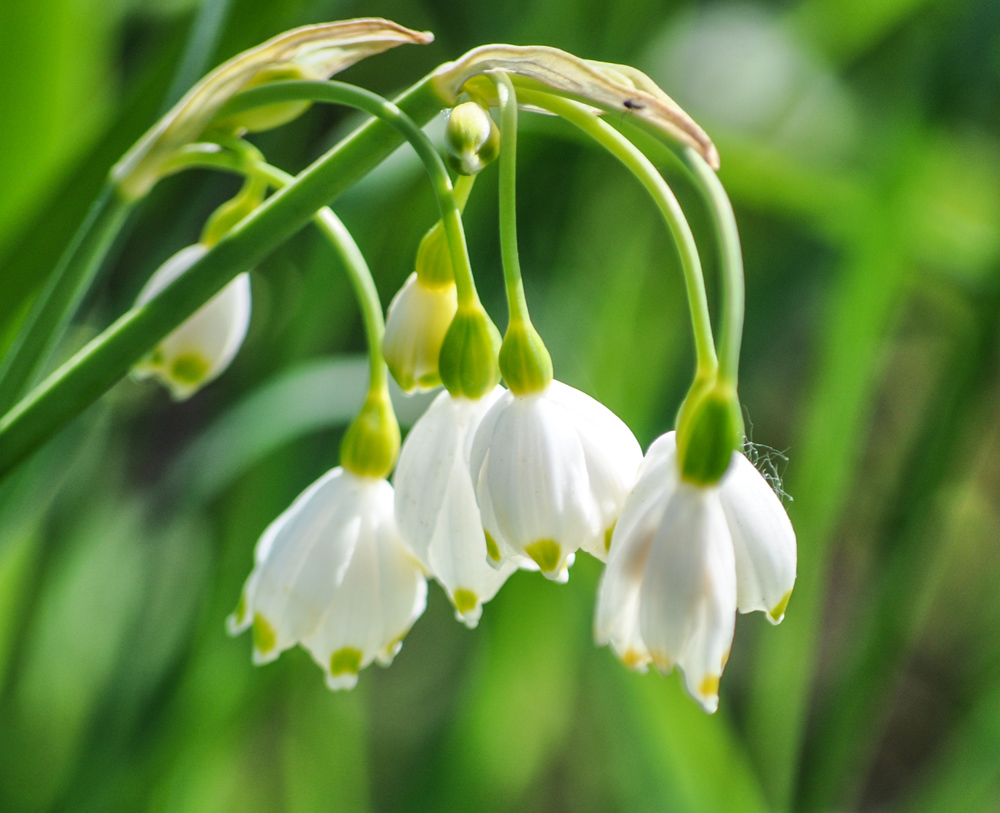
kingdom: Plantae
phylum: Tracheophyta
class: Liliopsida
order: Asparagales
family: Amaryllidaceae
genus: Leucojum
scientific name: Leucojum aestivum
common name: Summer snowflake
